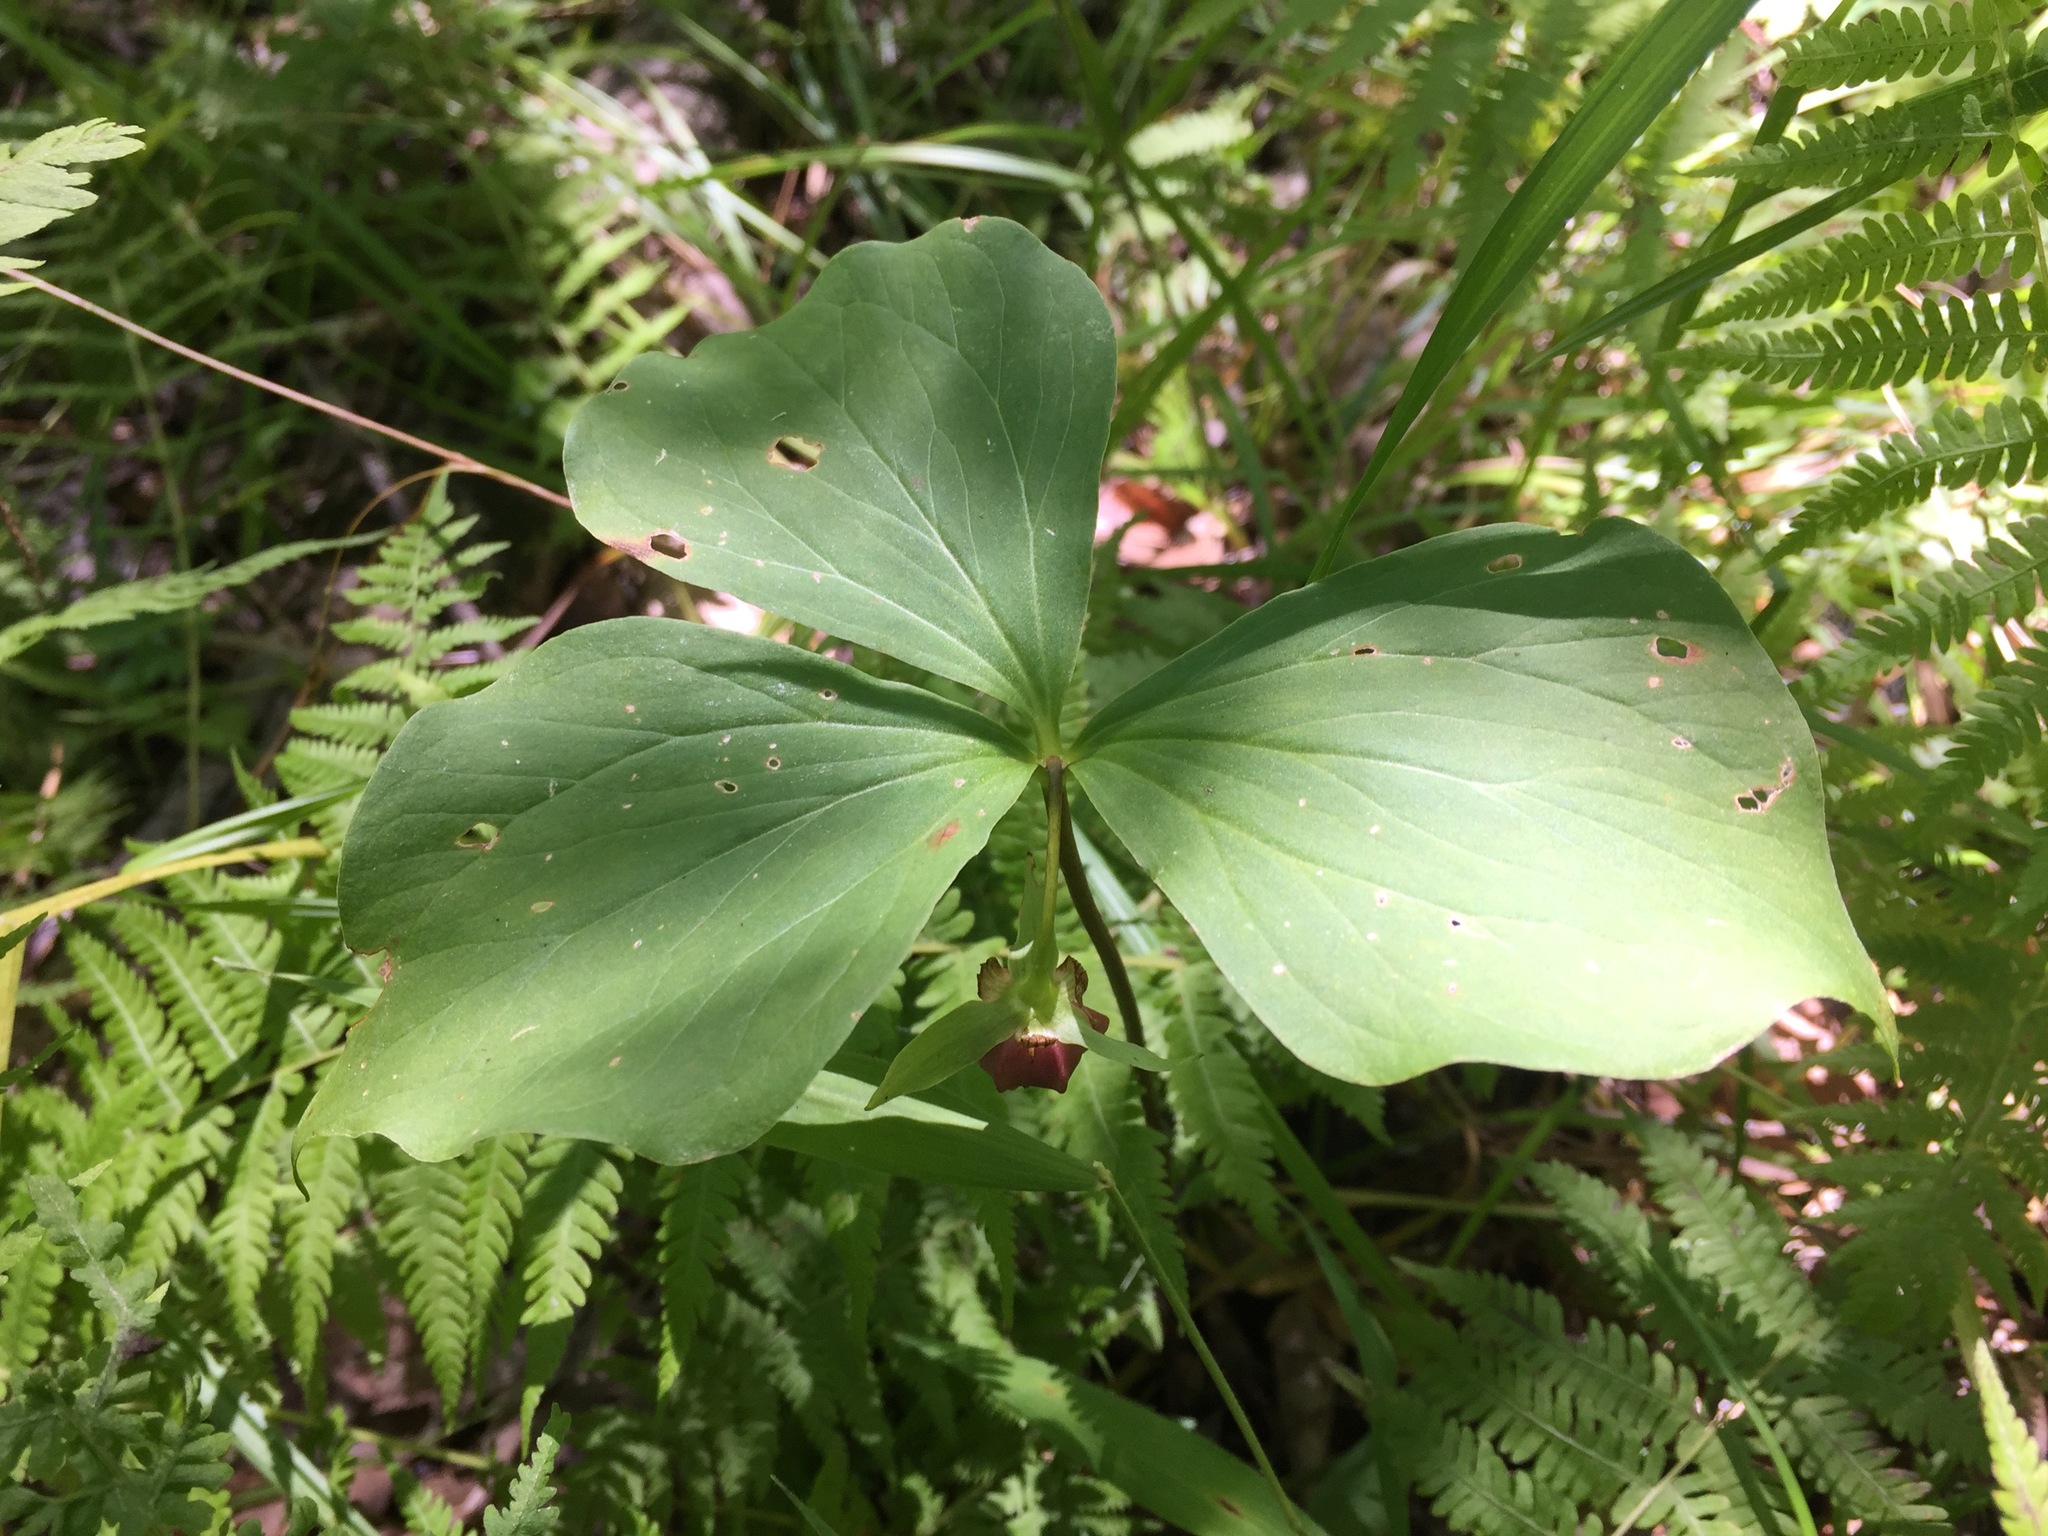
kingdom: Plantae
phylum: Tracheophyta
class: Liliopsida
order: Liliales
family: Melanthiaceae
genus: Trillium
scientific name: Trillium cernuum
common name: Nodding trillium
